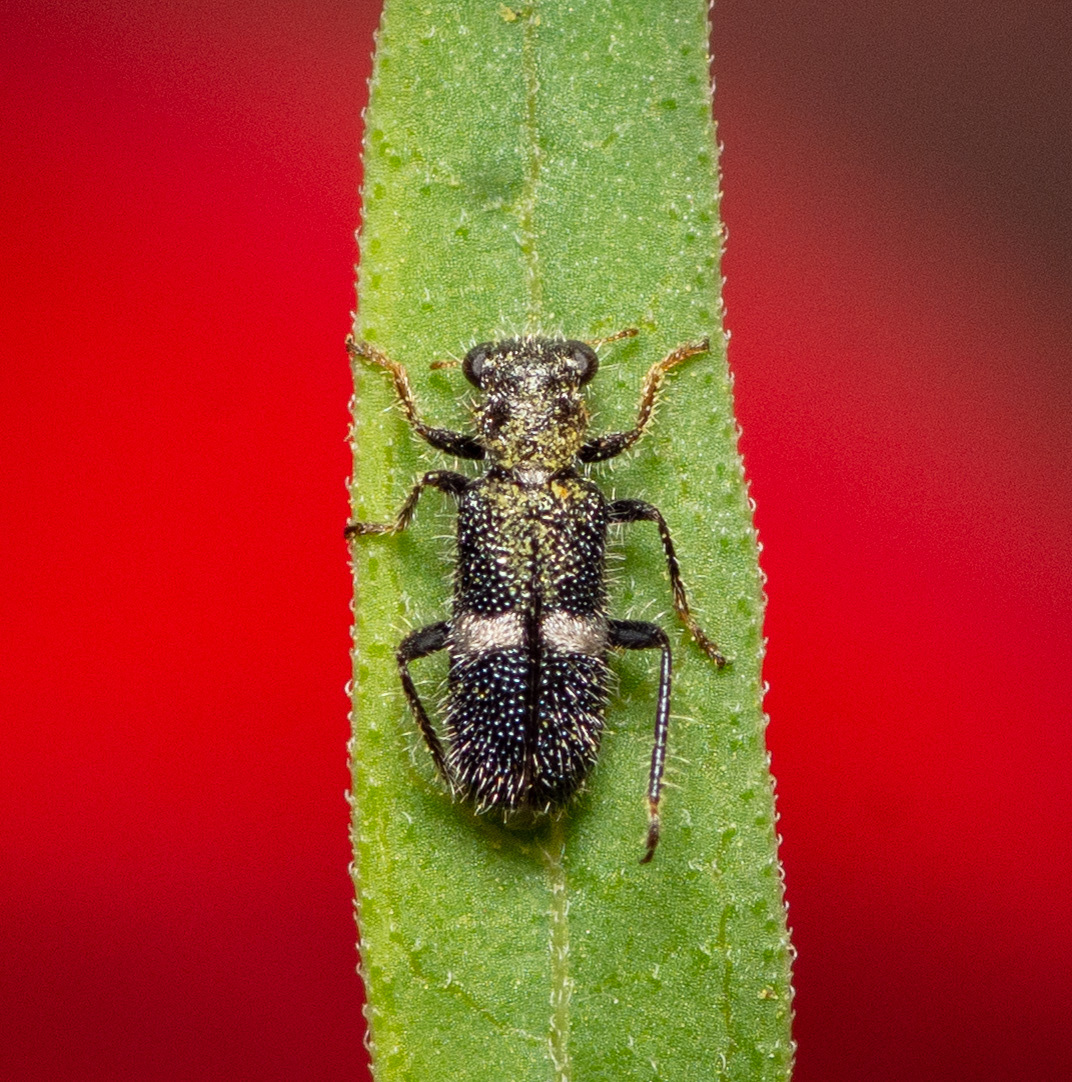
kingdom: Animalia
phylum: Arthropoda
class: Insecta
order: Coleoptera
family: Cleridae
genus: Phyllobaenus
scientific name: Phyllobaenus unifasciatus
